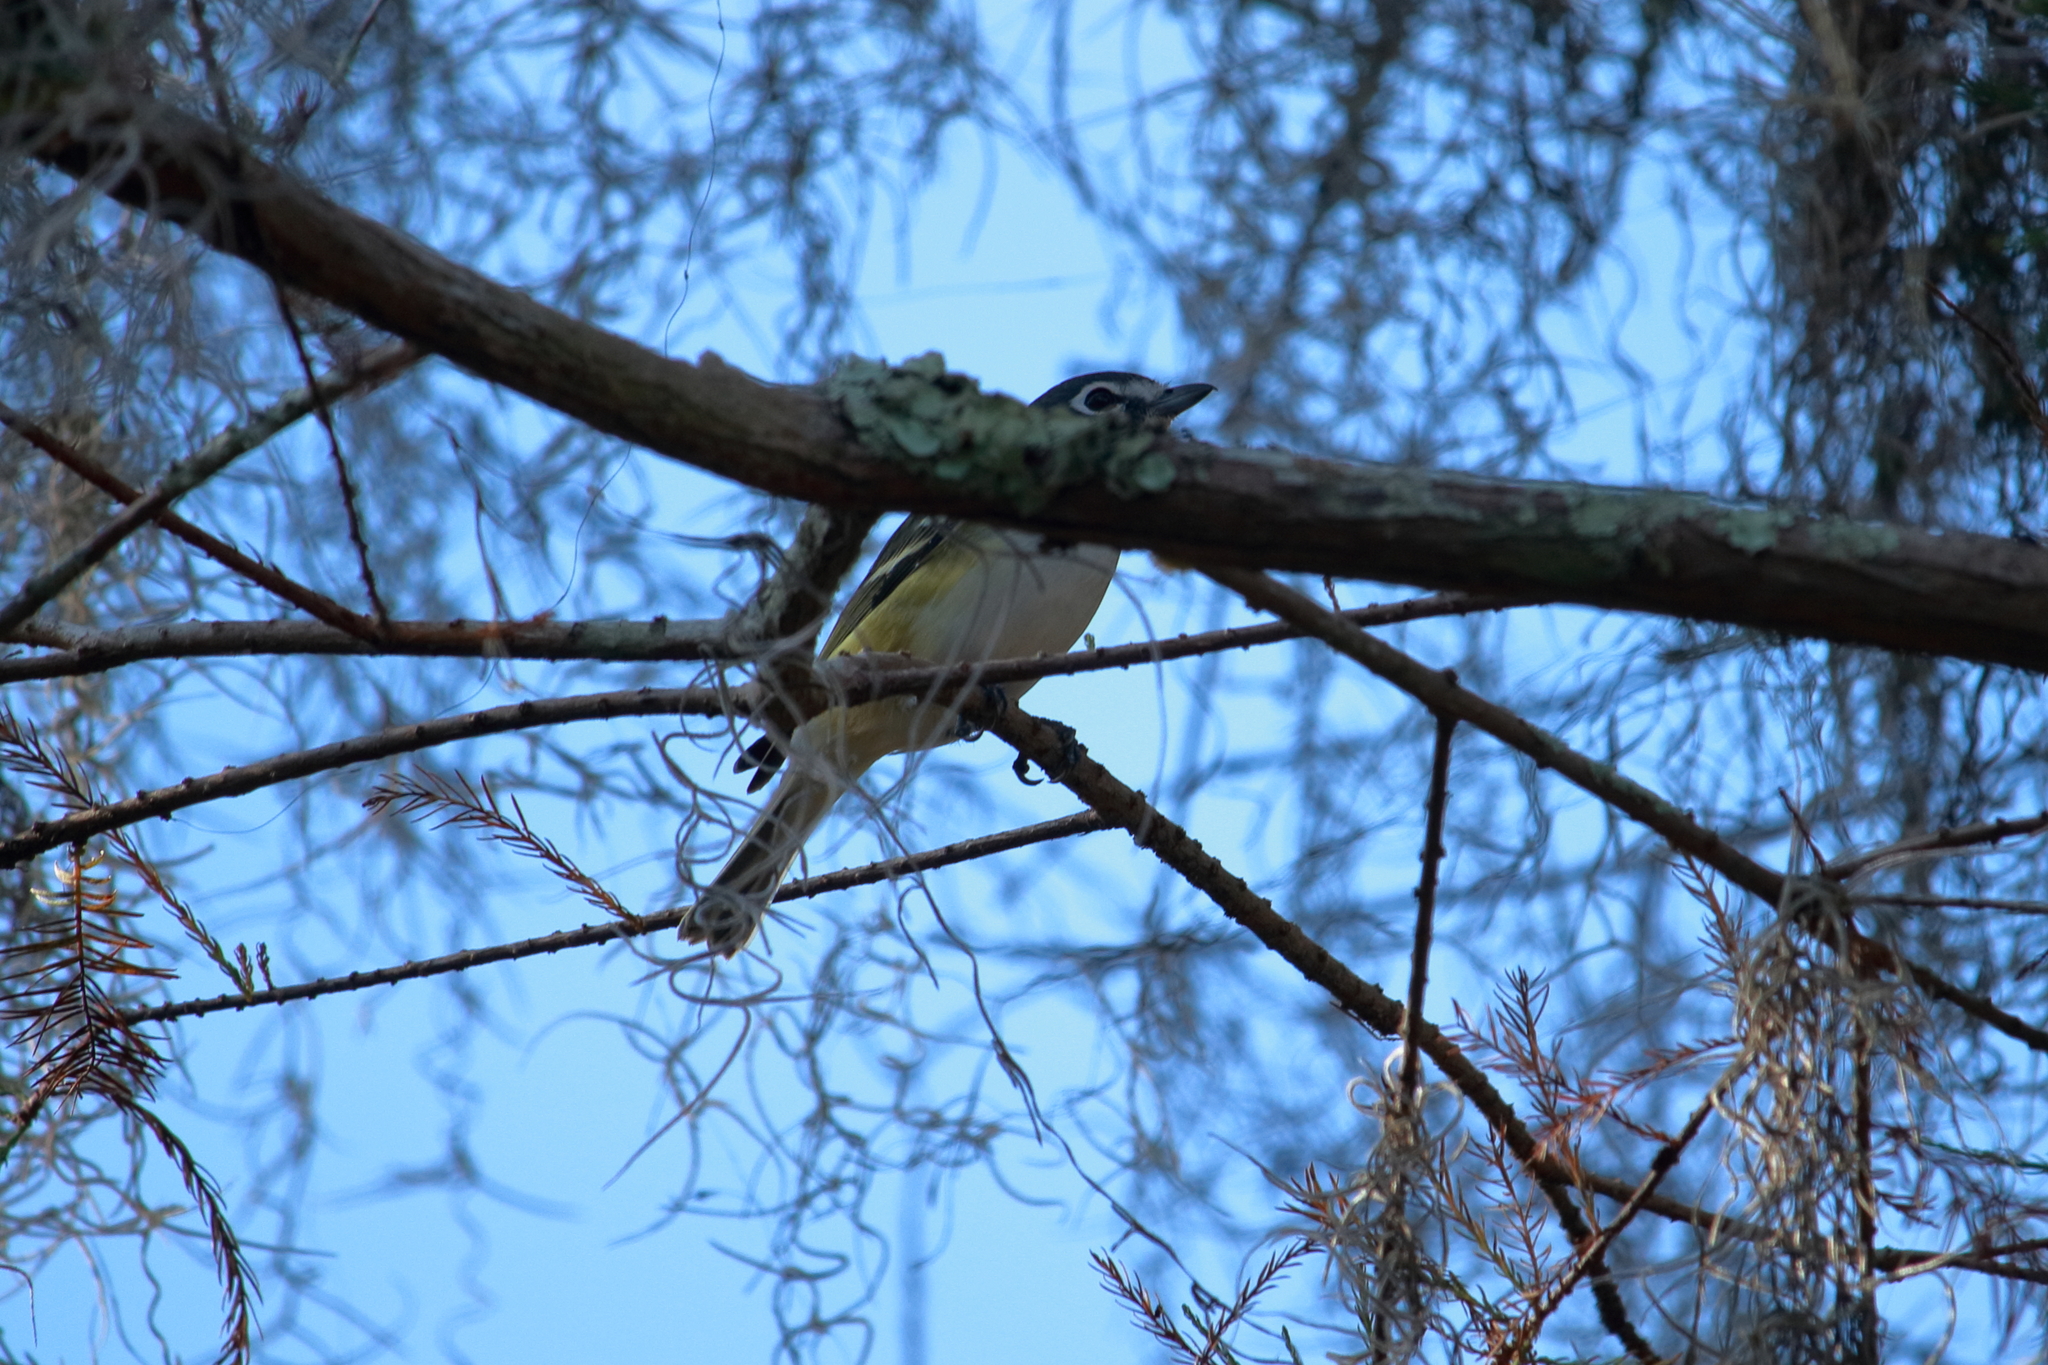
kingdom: Animalia
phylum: Chordata
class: Aves
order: Passeriformes
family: Vireonidae
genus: Vireo
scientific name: Vireo solitarius
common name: Blue-headed vireo
